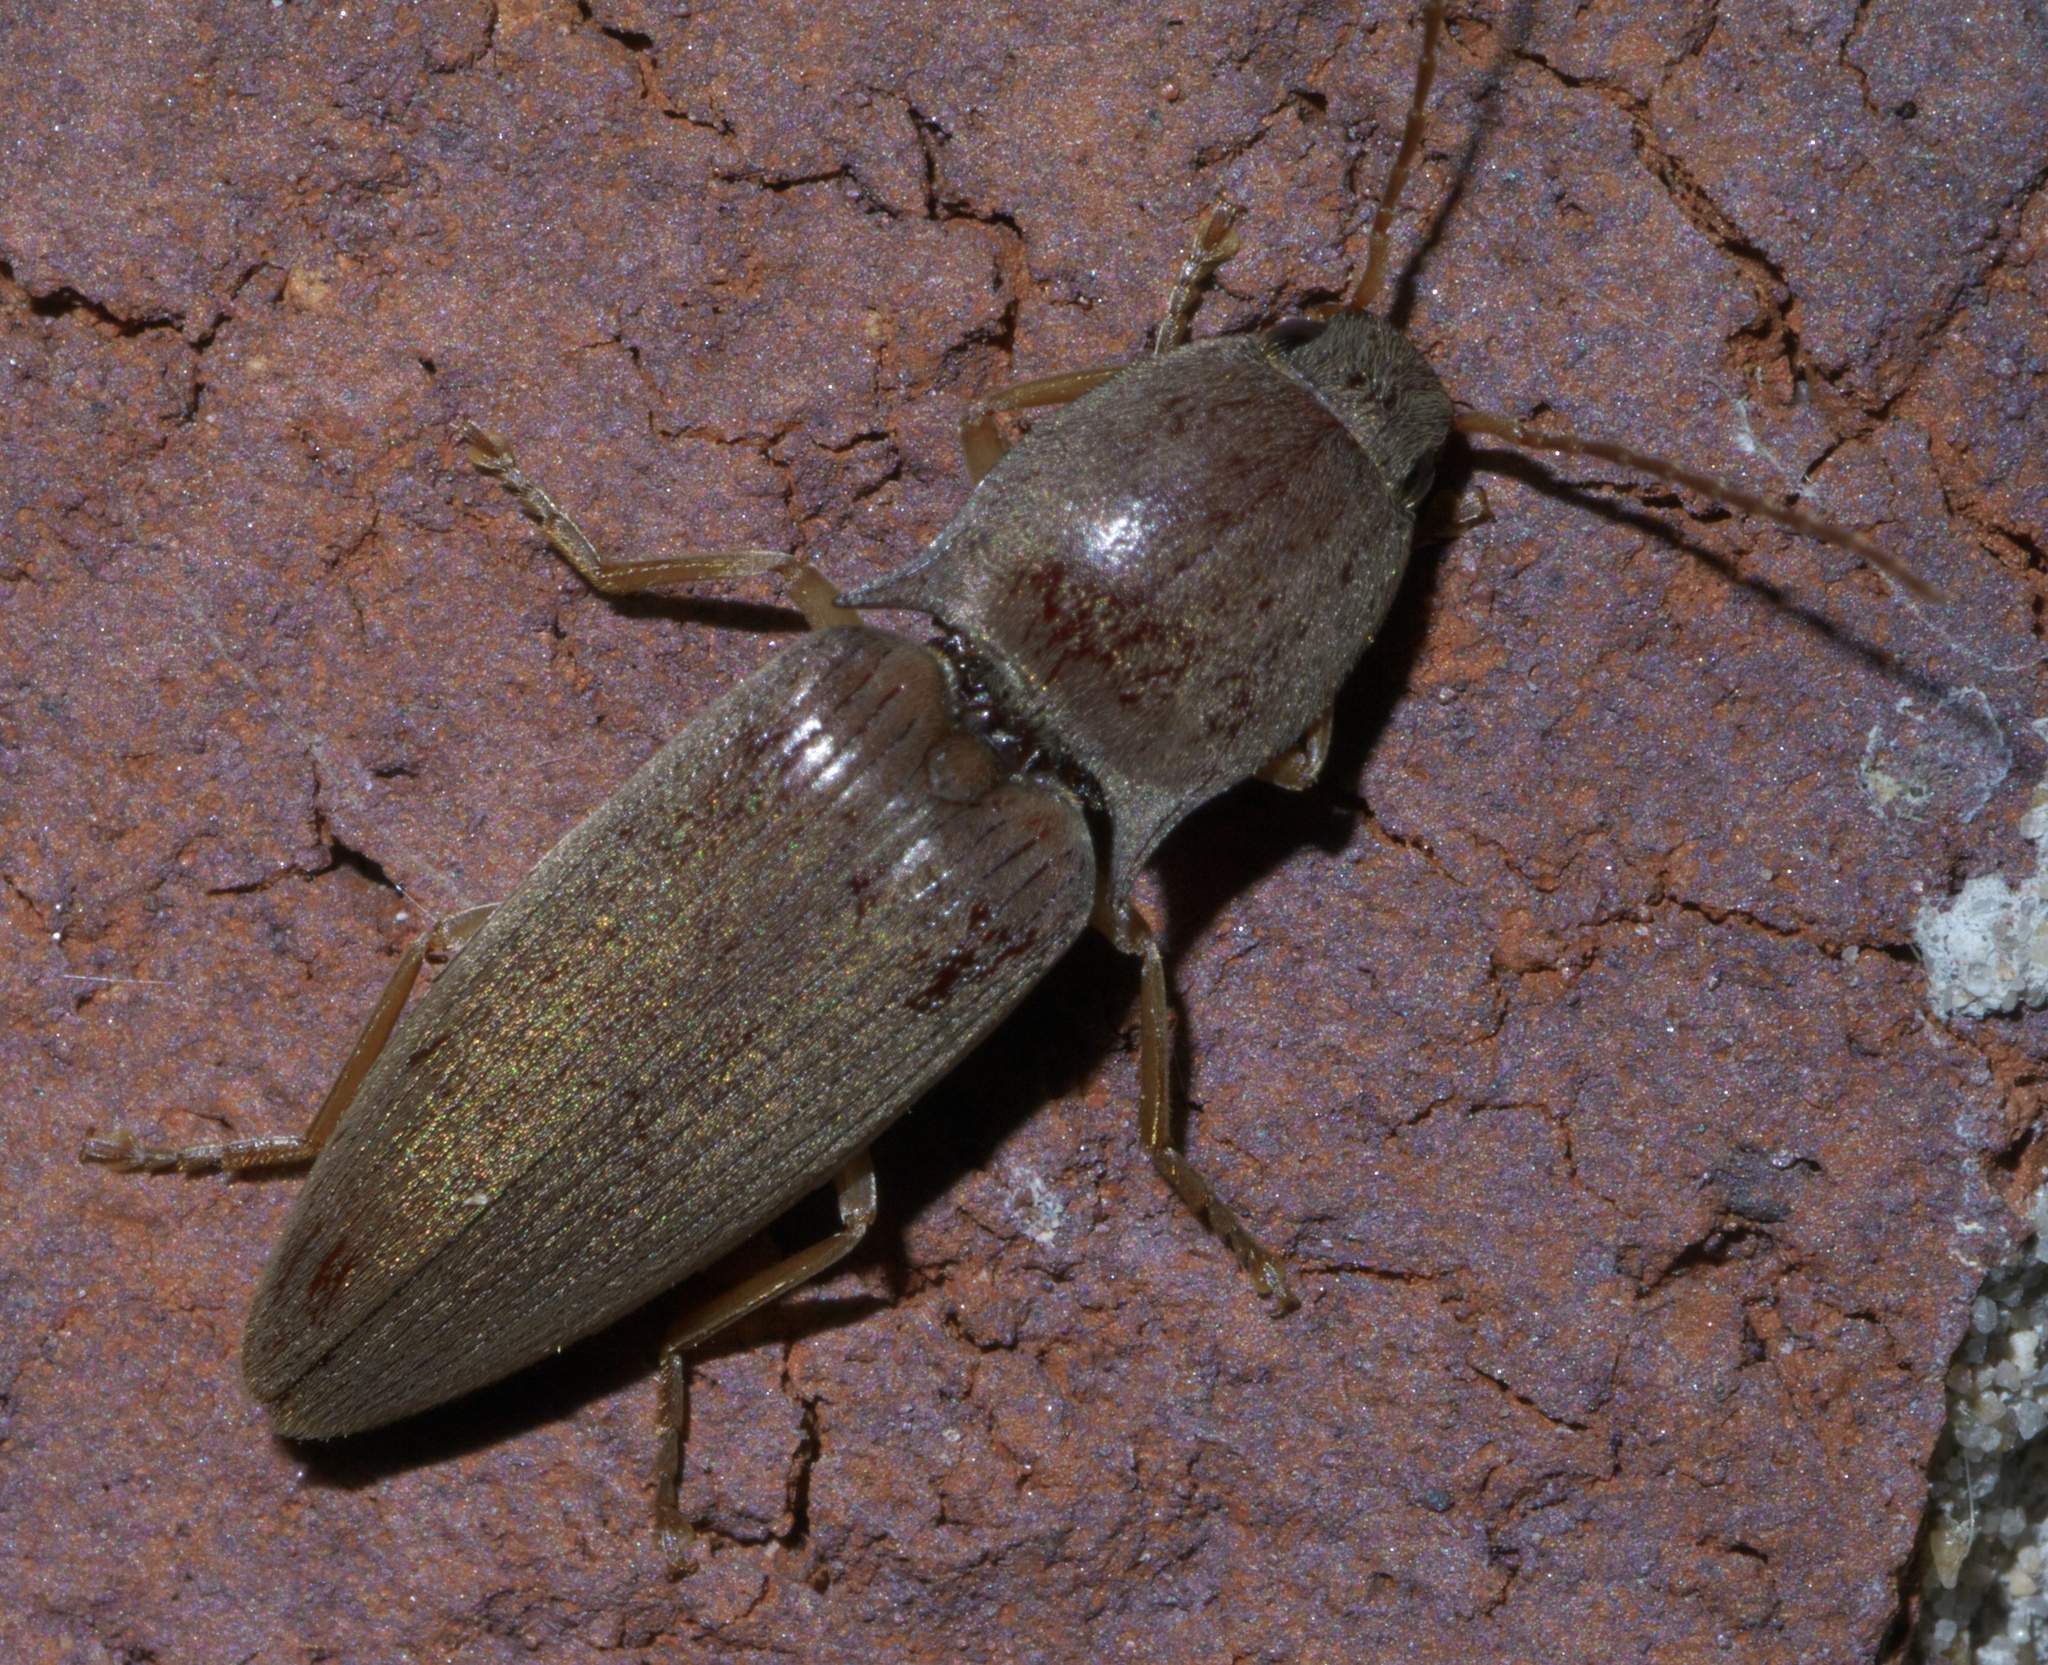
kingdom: Animalia
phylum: Arthropoda
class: Insecta
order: Coleoptera
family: Elateridae
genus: Monocrepidius
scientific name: Monocrepidius lividus
